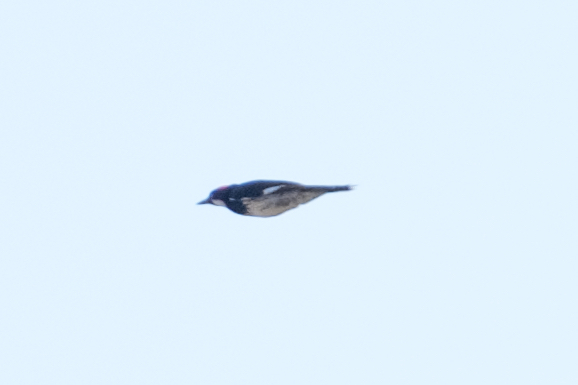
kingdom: Animalia
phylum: Chordata
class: Aves
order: Piciformes
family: Picidae
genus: Melanerpes
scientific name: Melanerpes formicivorus
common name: Acorn woodpecker
